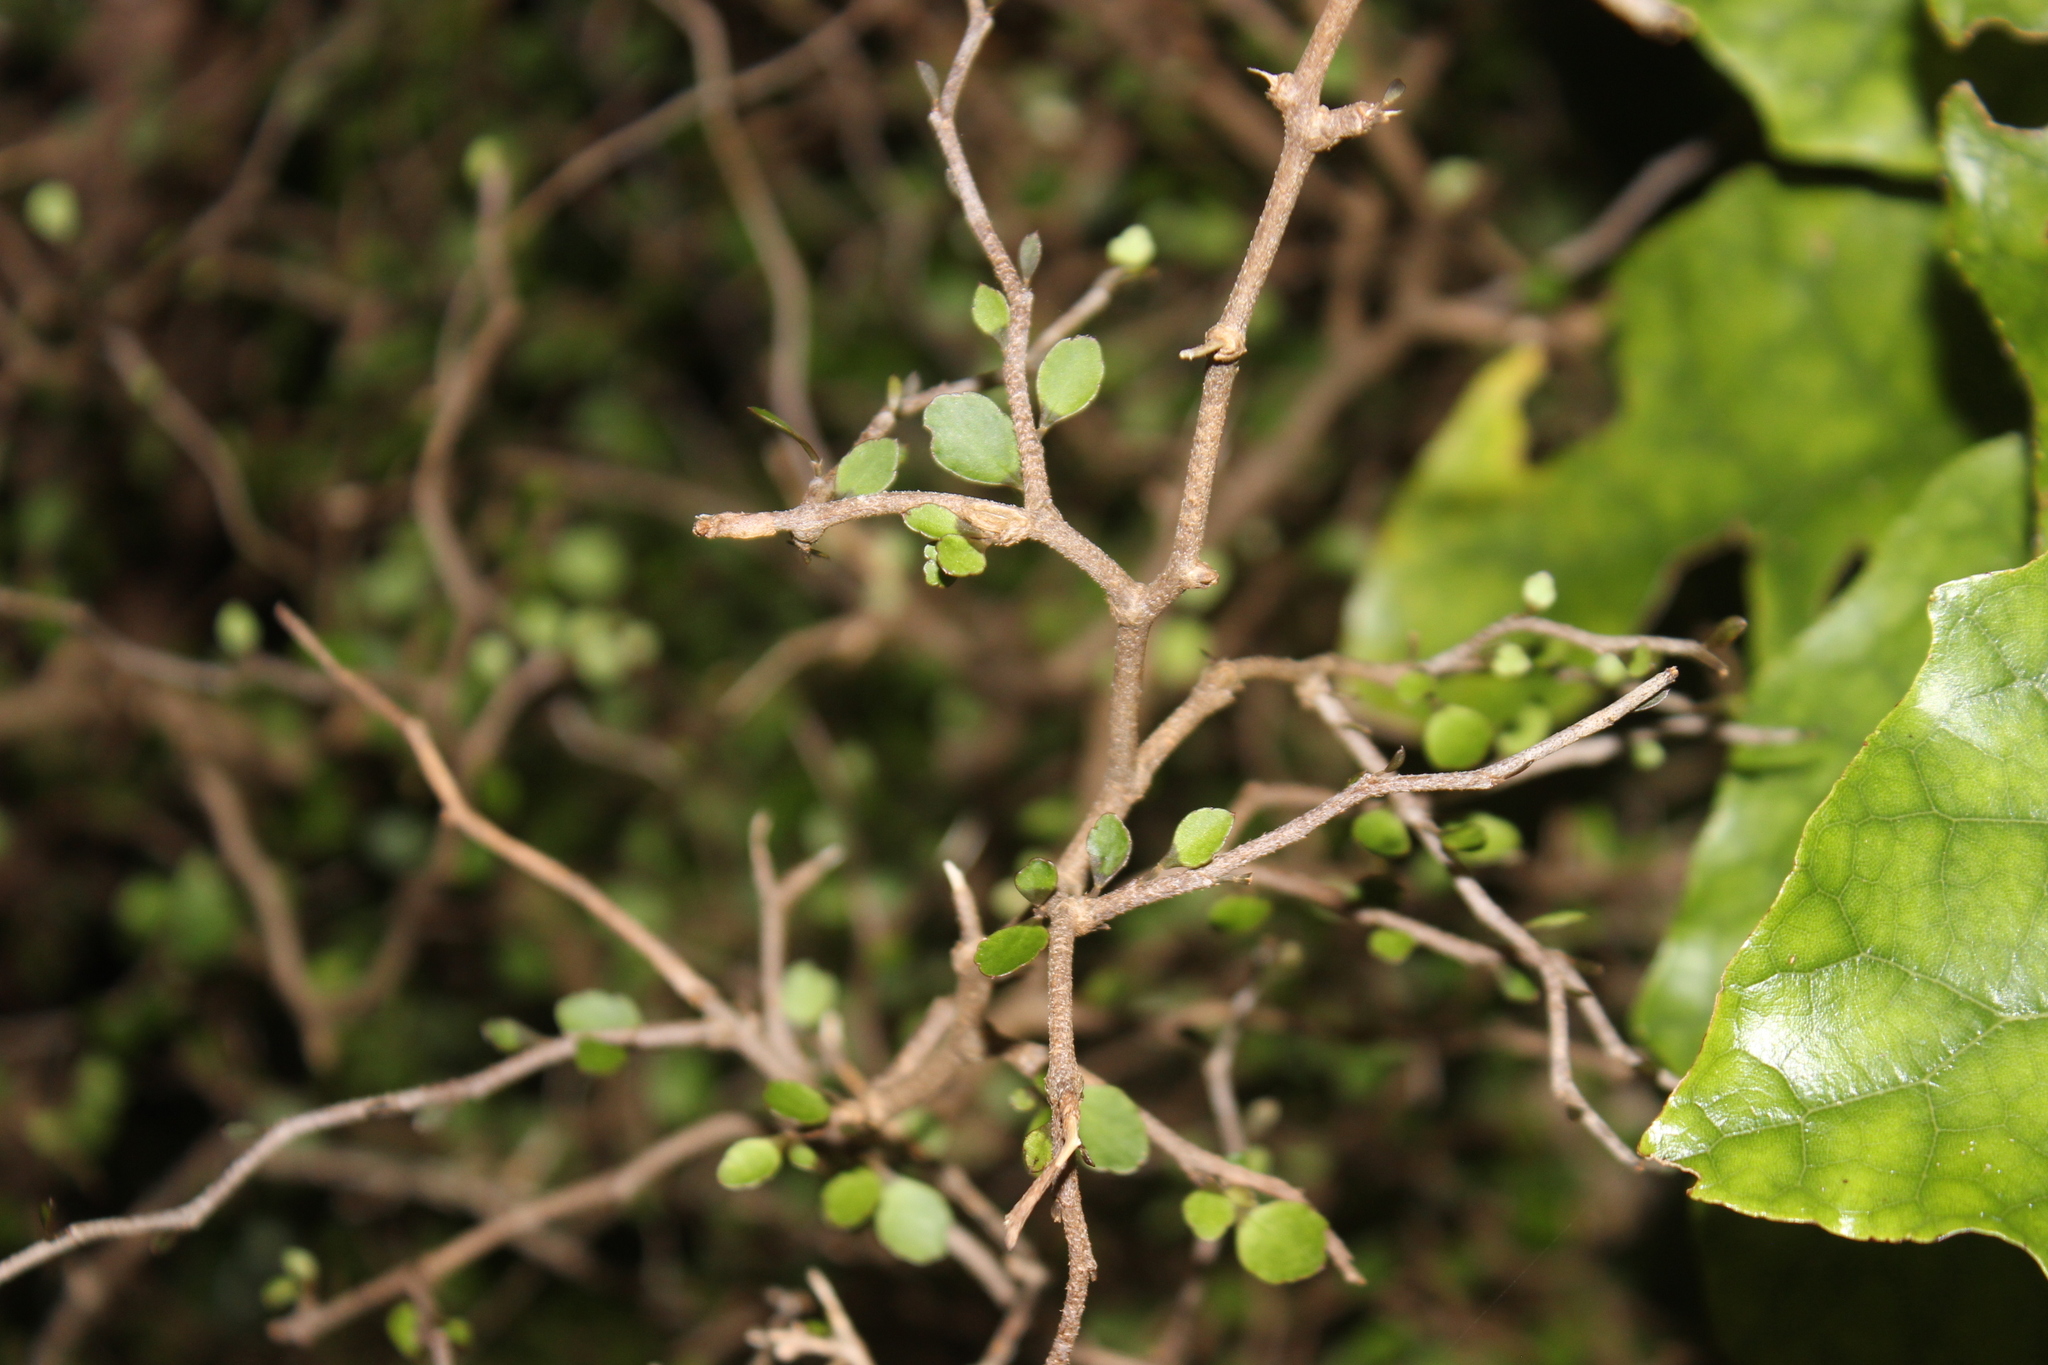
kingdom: Plantae
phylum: Tracheophyta
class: Magnoliopsida
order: Apiales
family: Araliaceae
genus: Raukaua
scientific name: Raukaua anomalus
